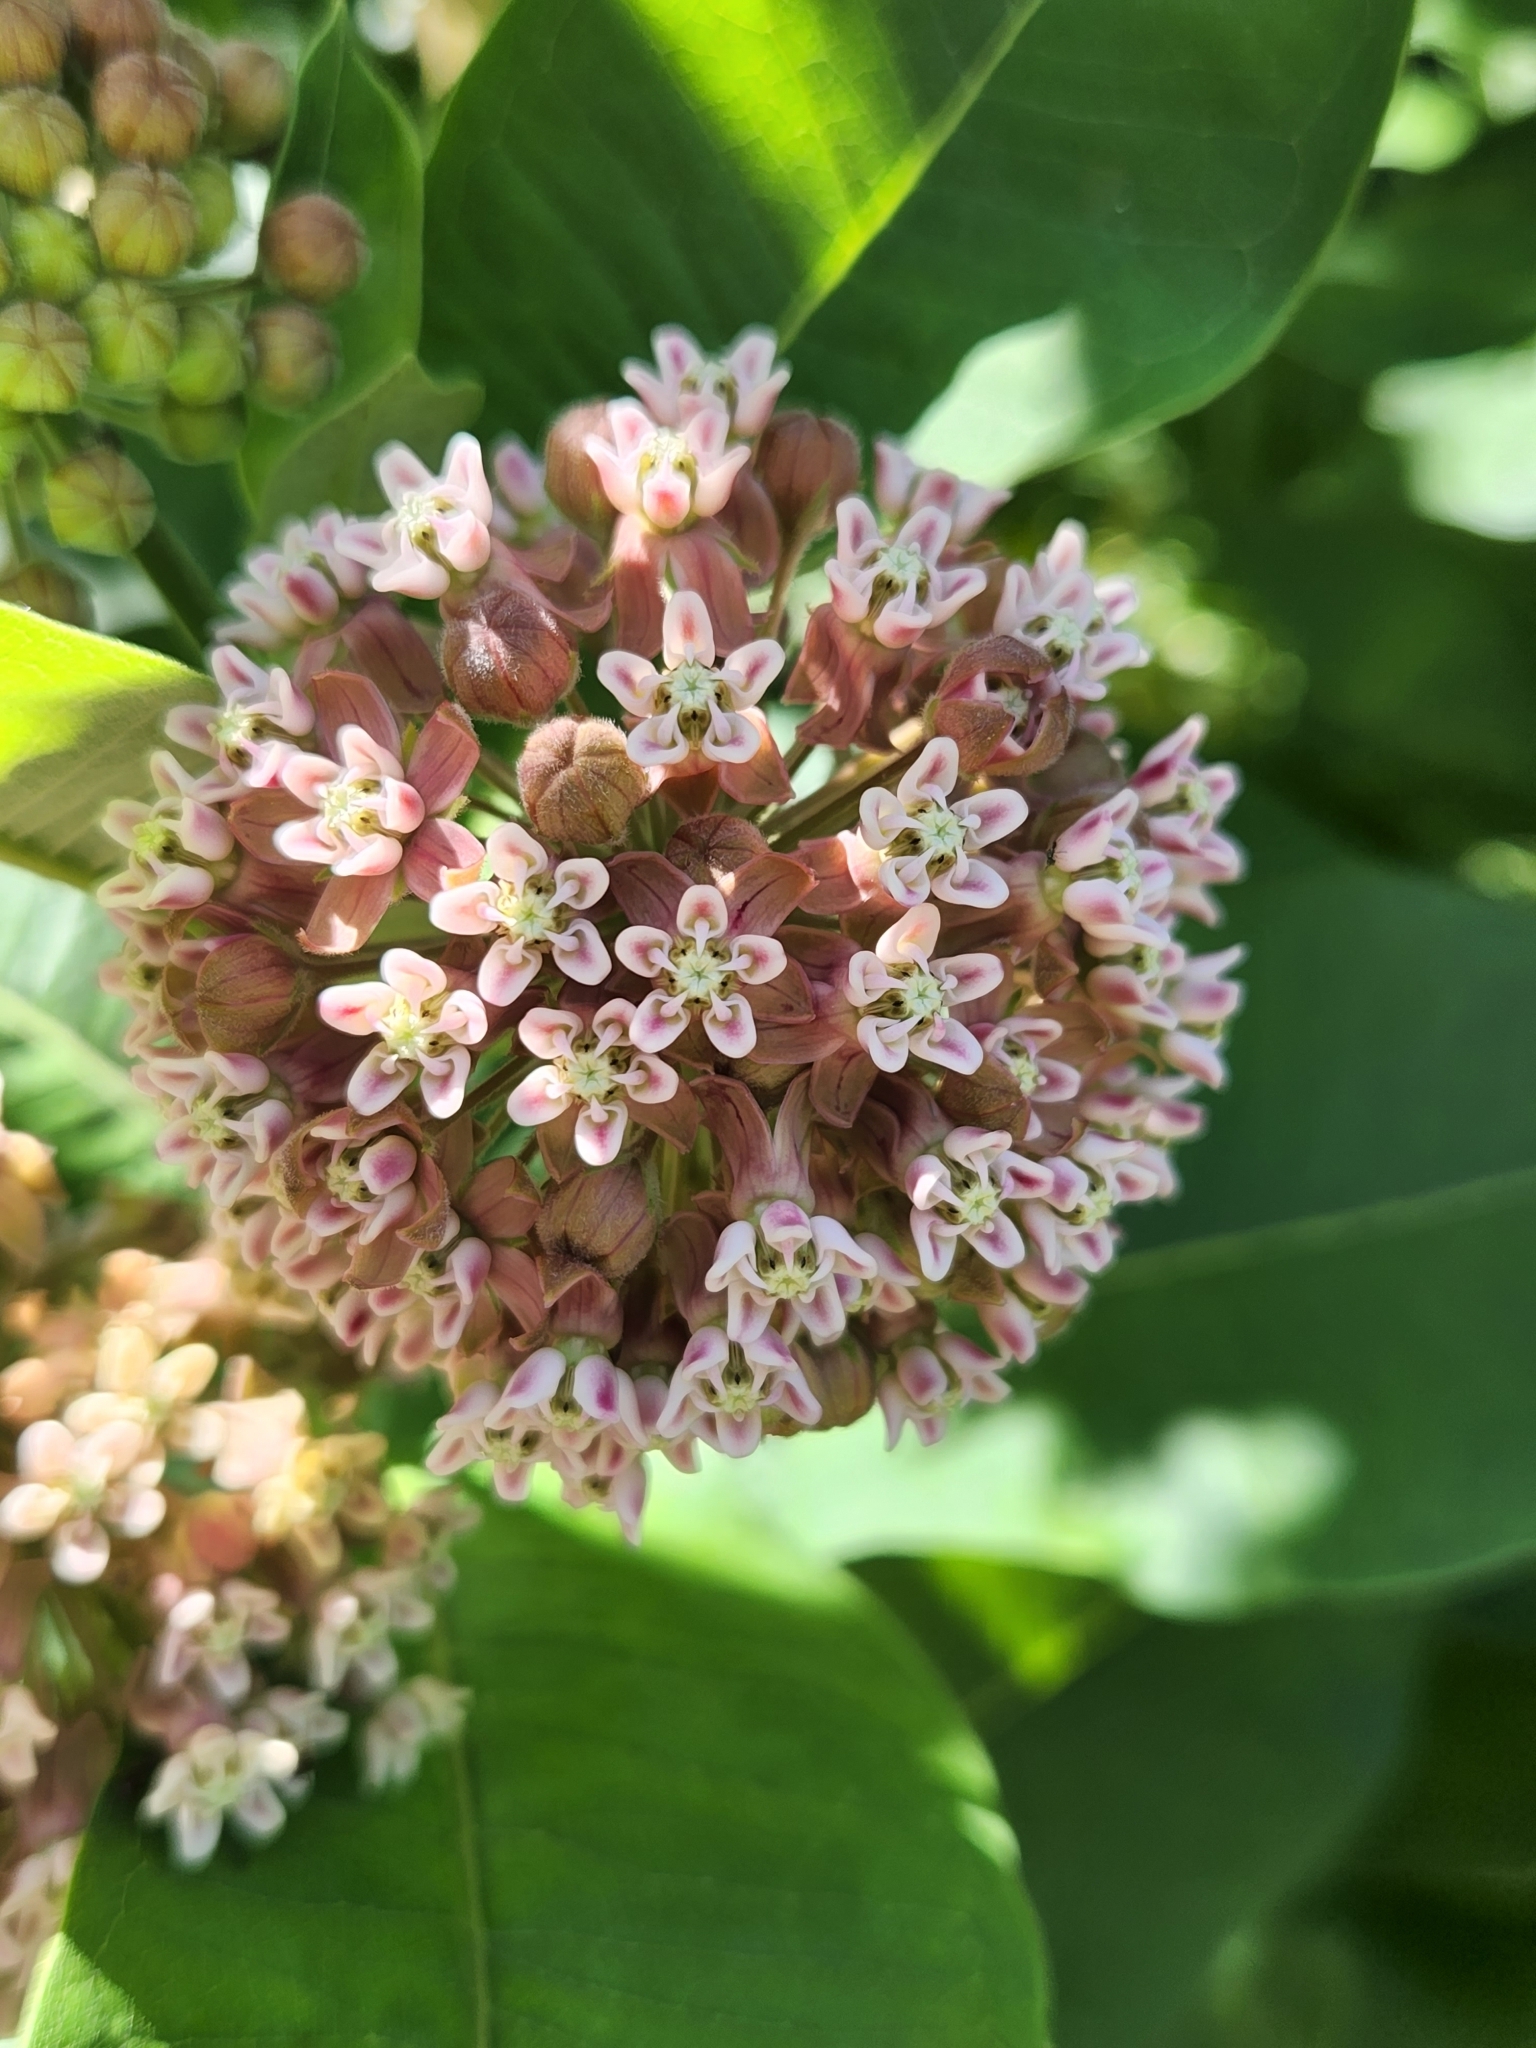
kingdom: Plantae
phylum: Tracheophyta
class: Magnoliopsida
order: Gentianales
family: Apocynaceae
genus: Asclepias
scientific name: Asclepias syriaca
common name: Common milkweed
